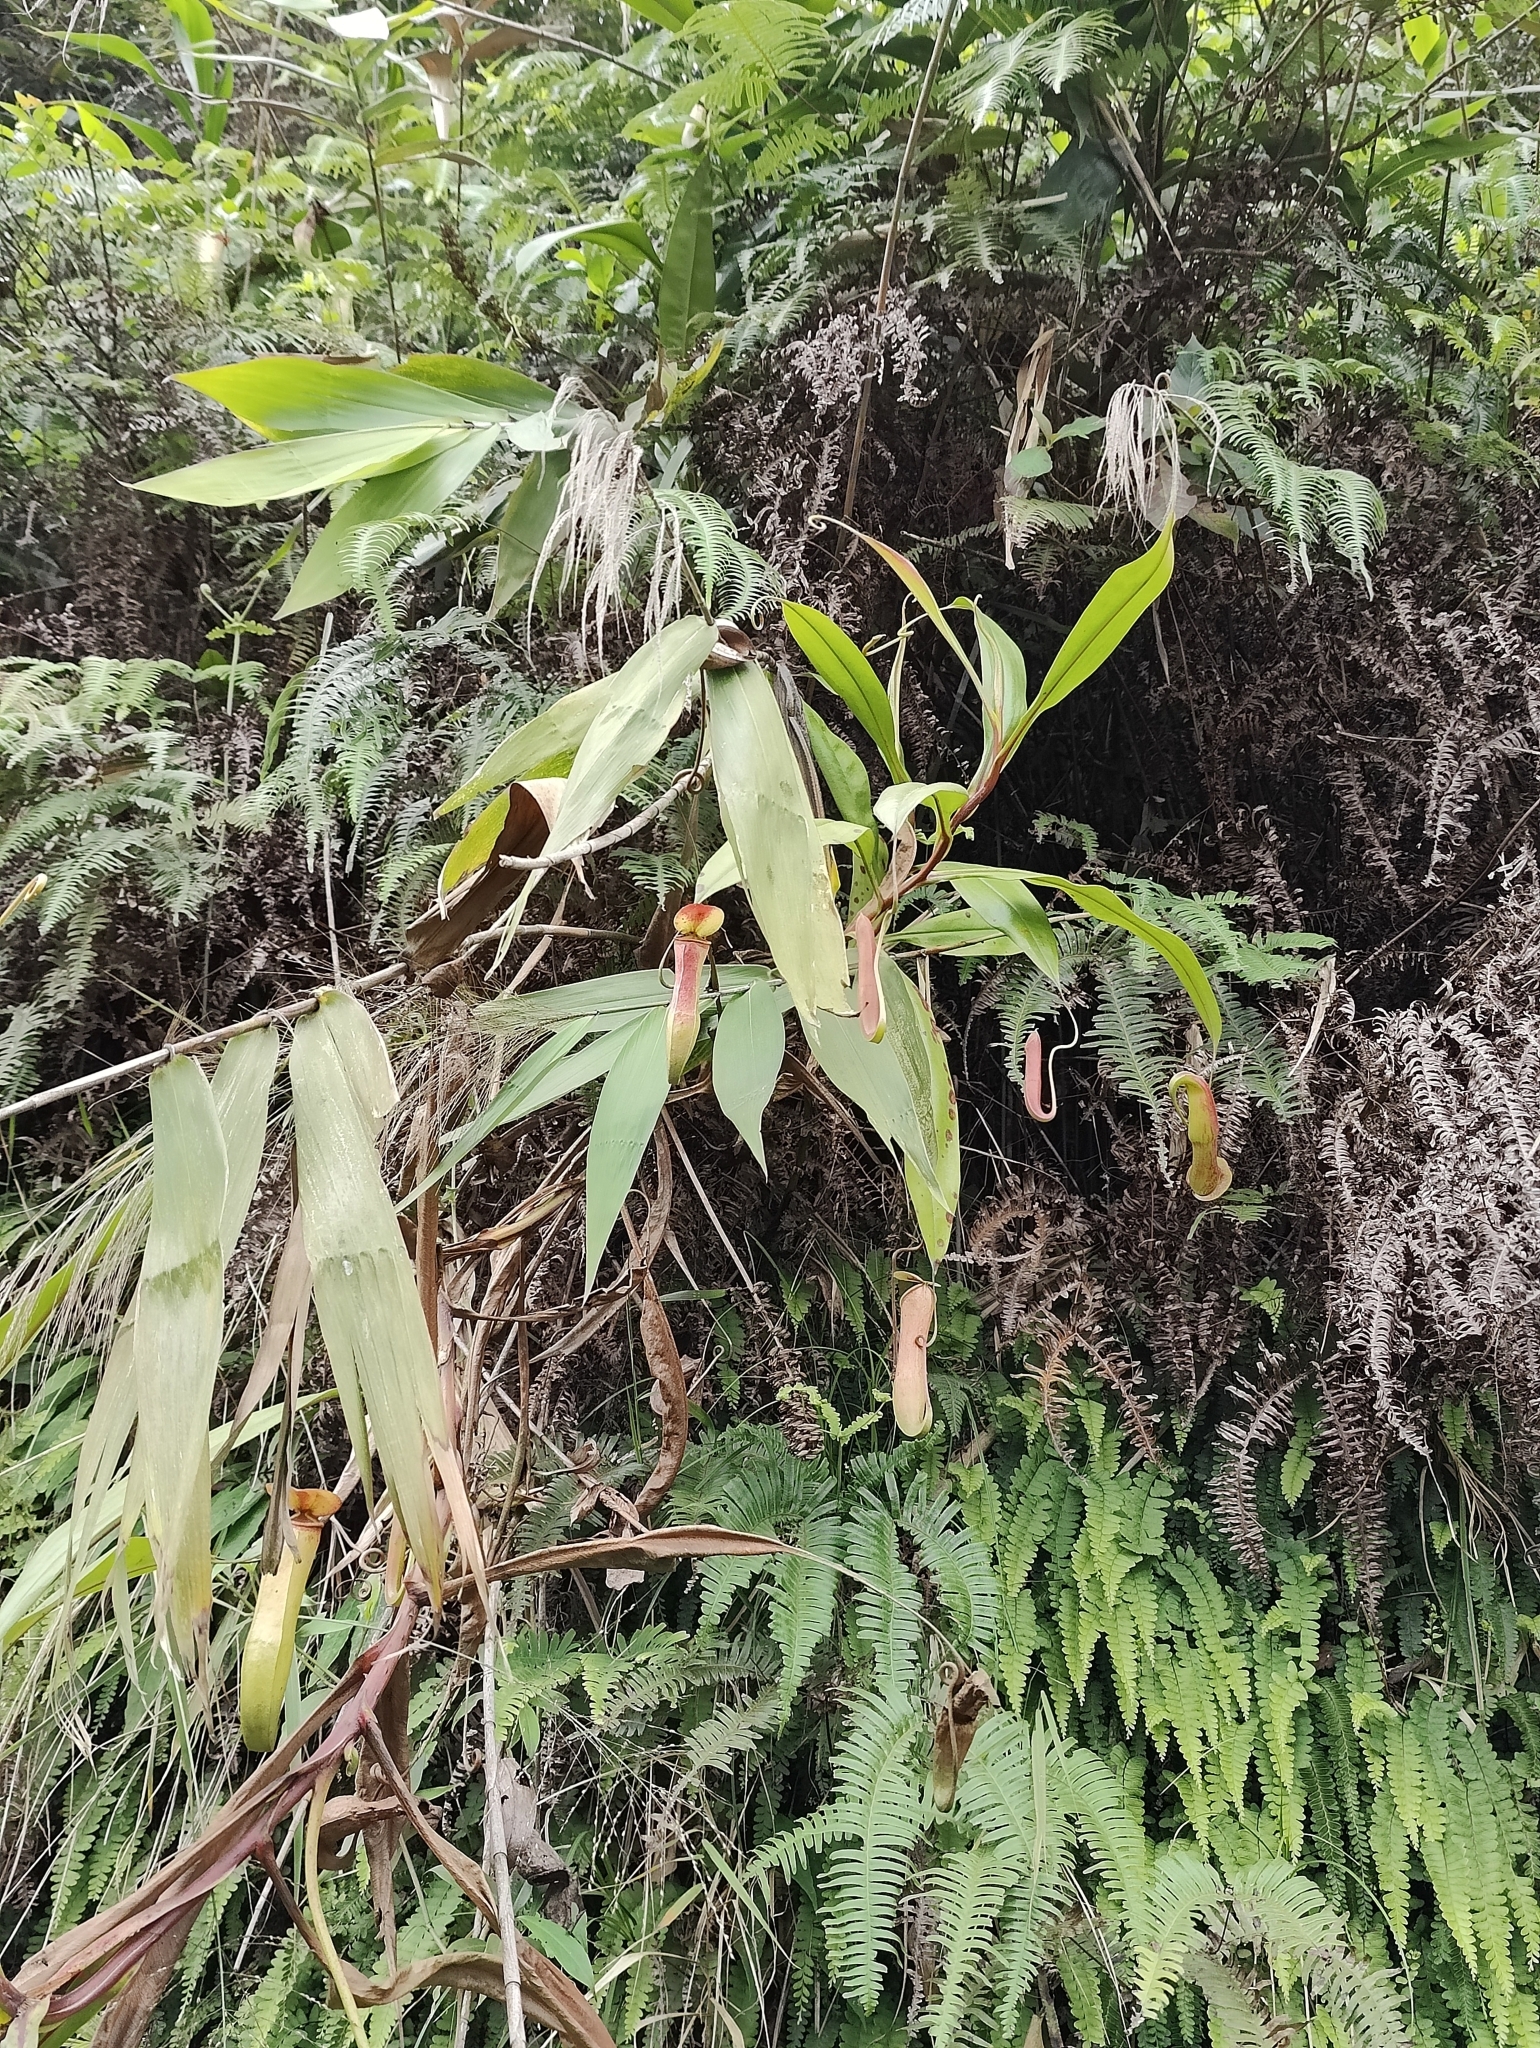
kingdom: Plantae
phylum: Tracheophyta
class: Magnoliopsida
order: Caryophyllales
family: Nepenthaceae
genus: Nepenthes
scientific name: Nepenthes khasiana
